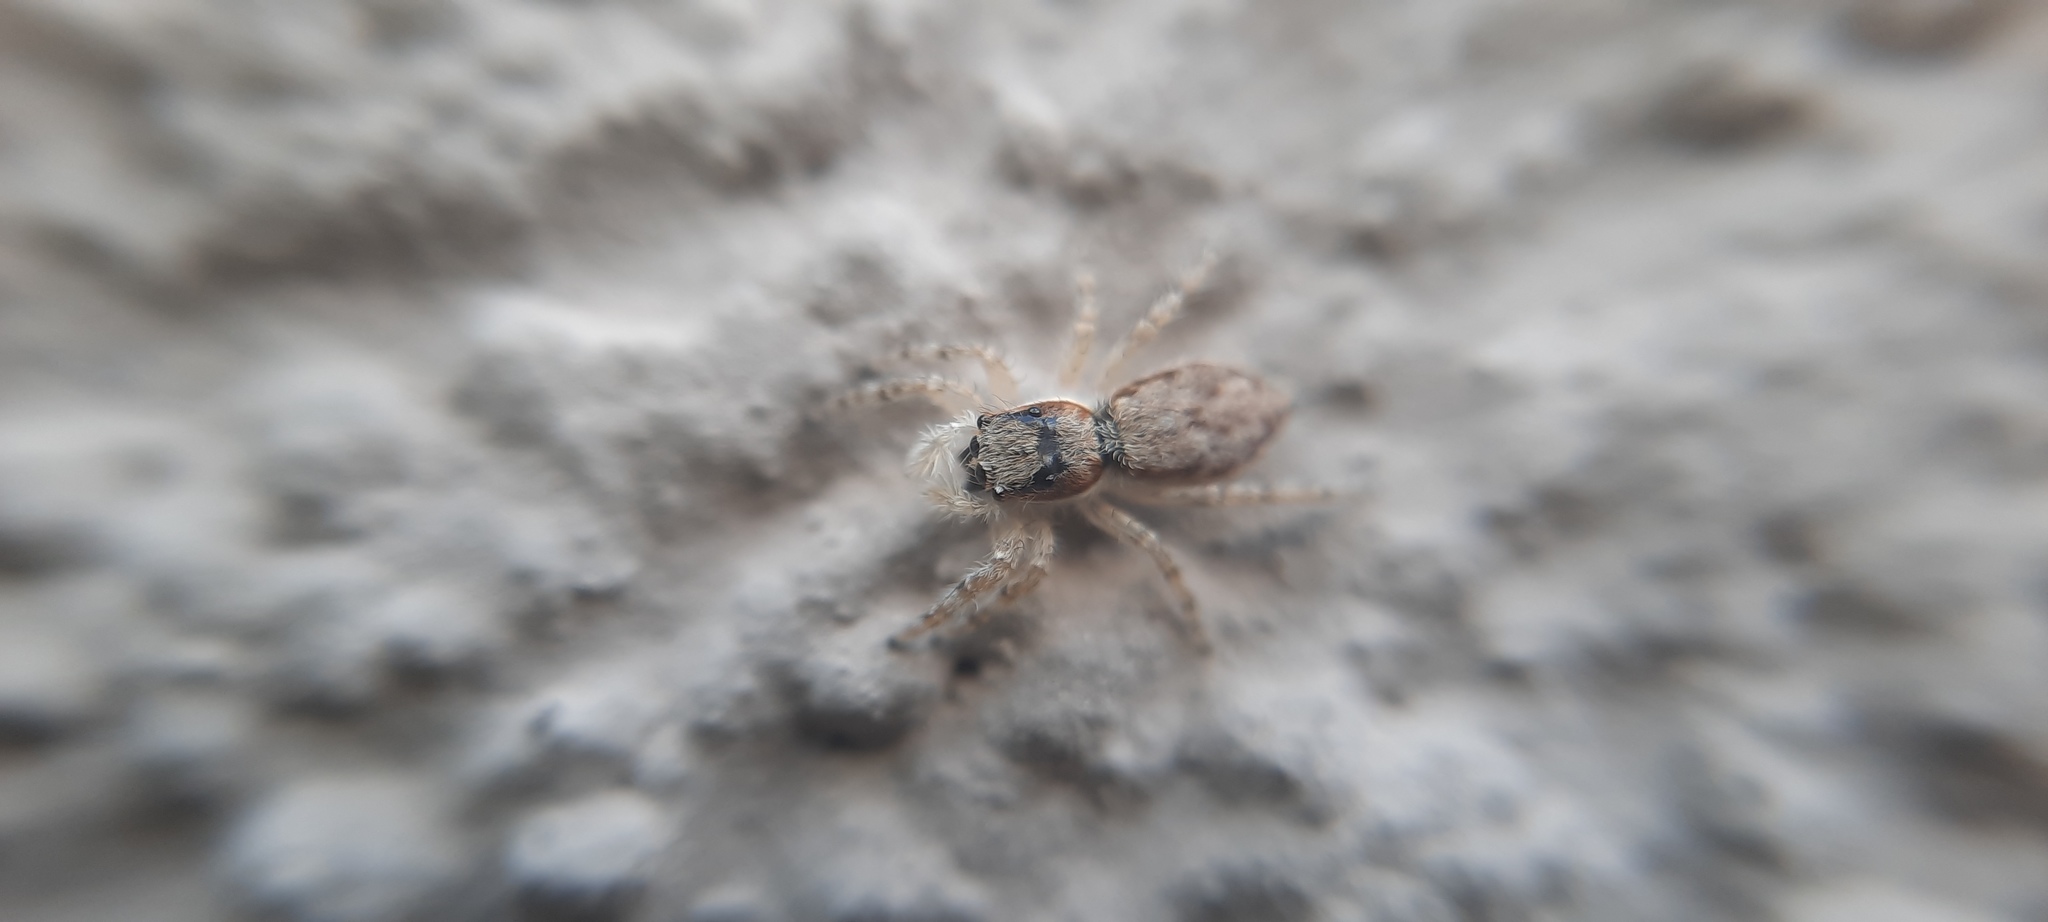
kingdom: Animalia
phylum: Arthropoda
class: Arachnida
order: Araneae
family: Salticidae
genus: Menemerus
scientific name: Menemerus bivittatus
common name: Gray wall jumper
